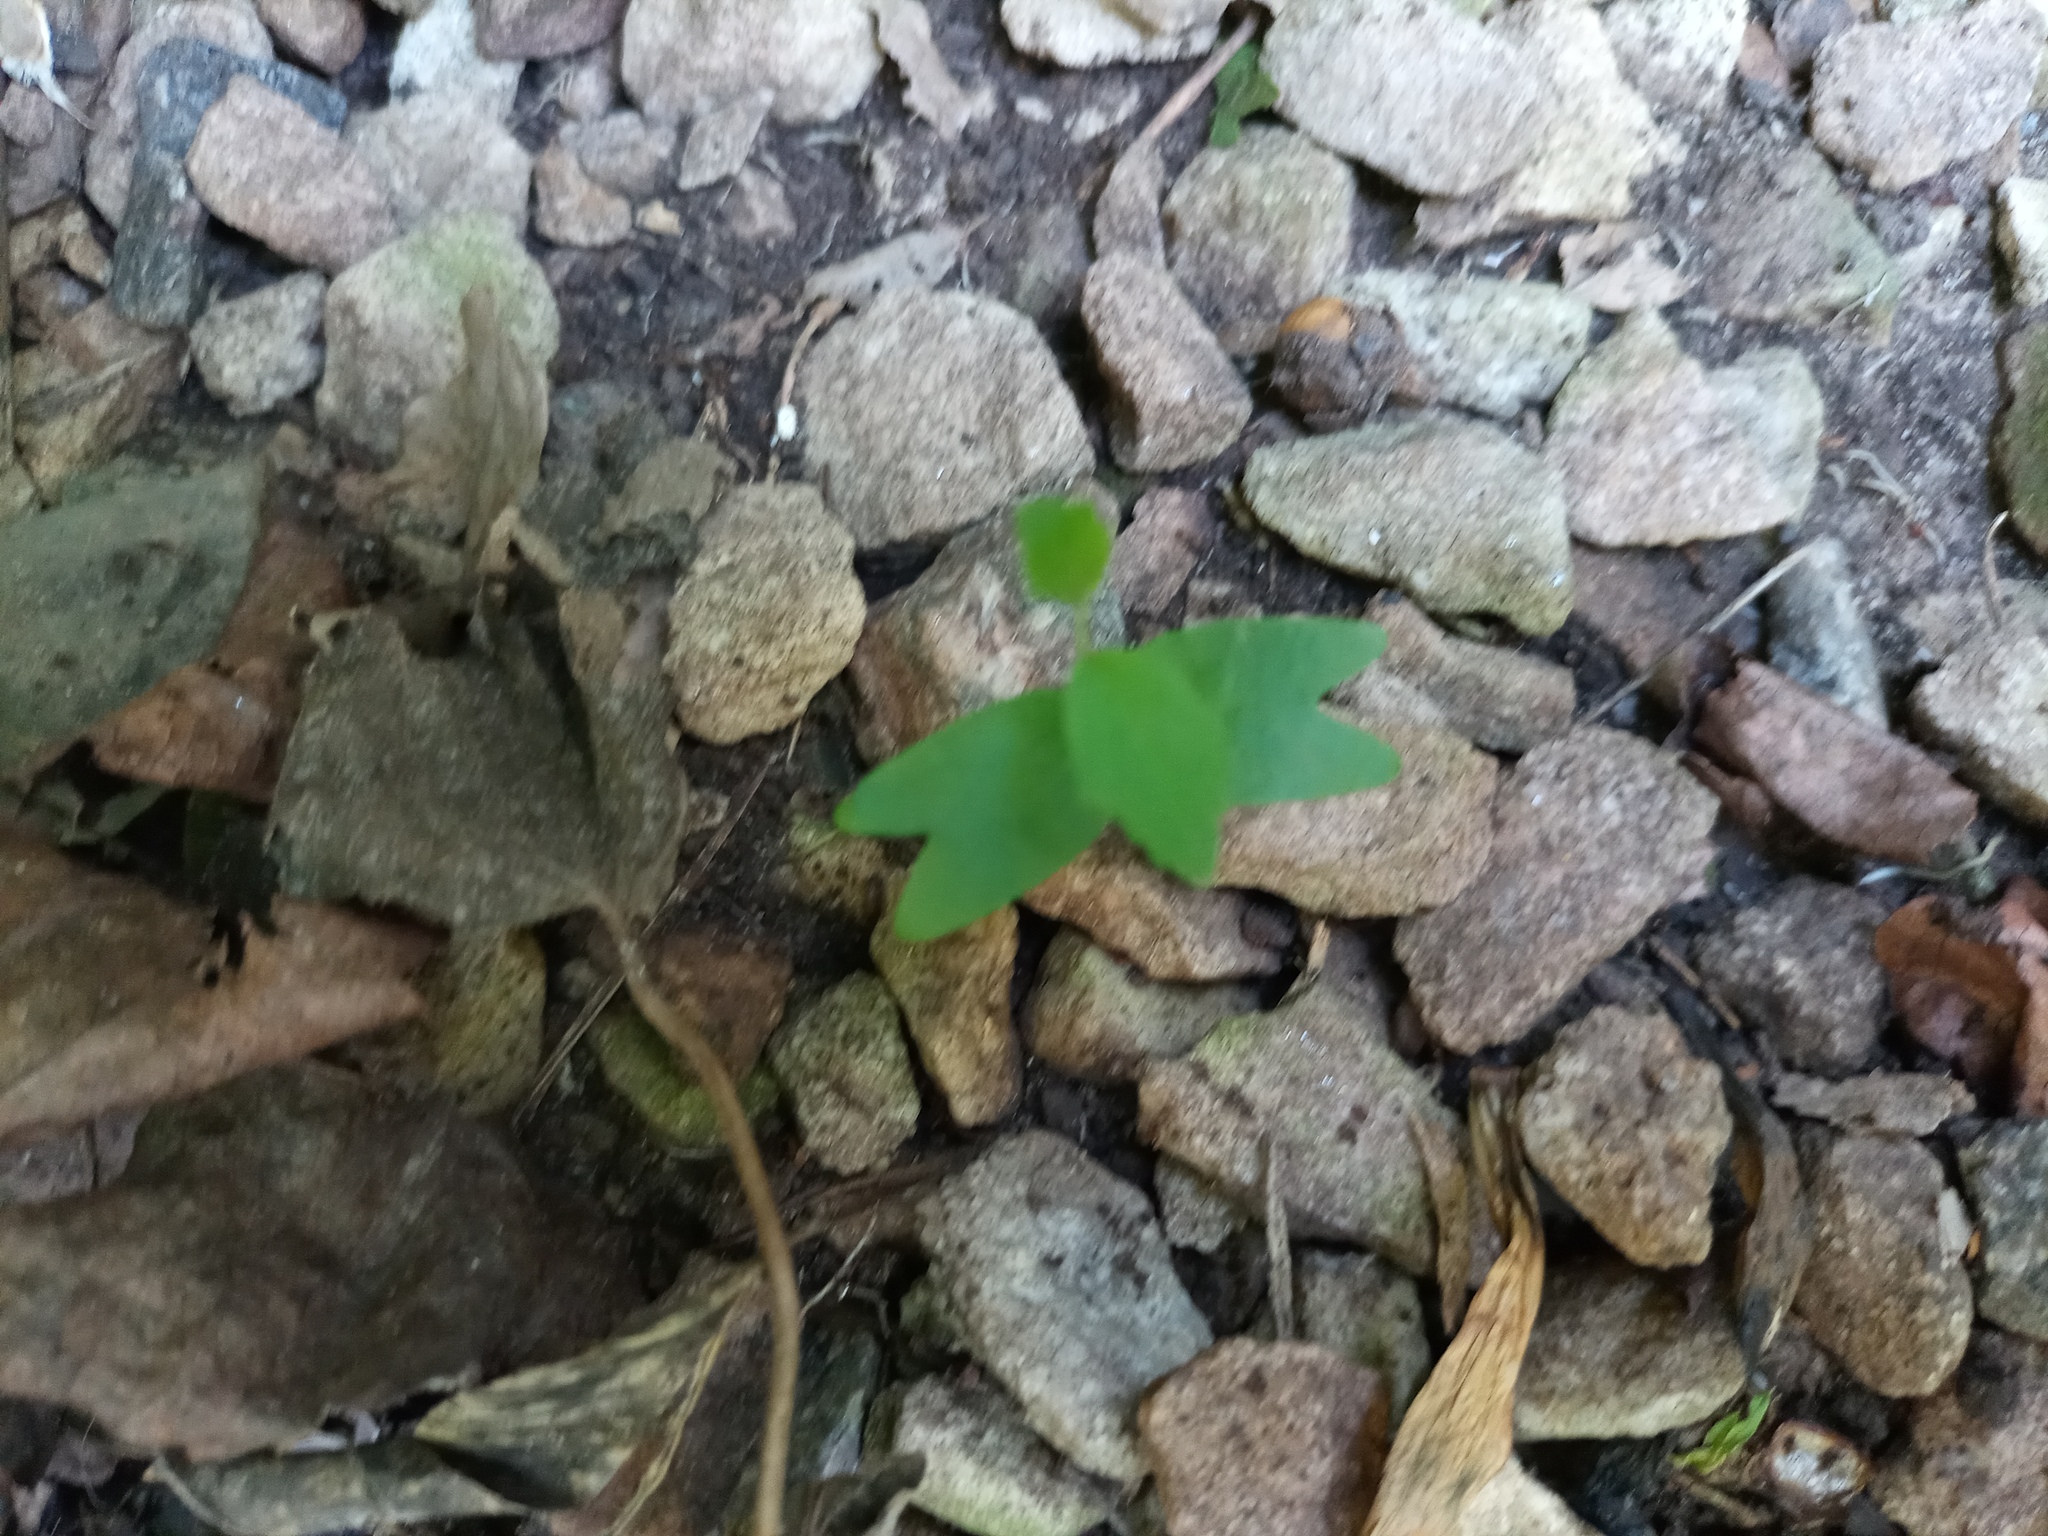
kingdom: Plantae
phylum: Tracheophyta
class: Magnoliopsida
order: Rosales
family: Cannabaceae
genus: Celtis
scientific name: Celtis tala
